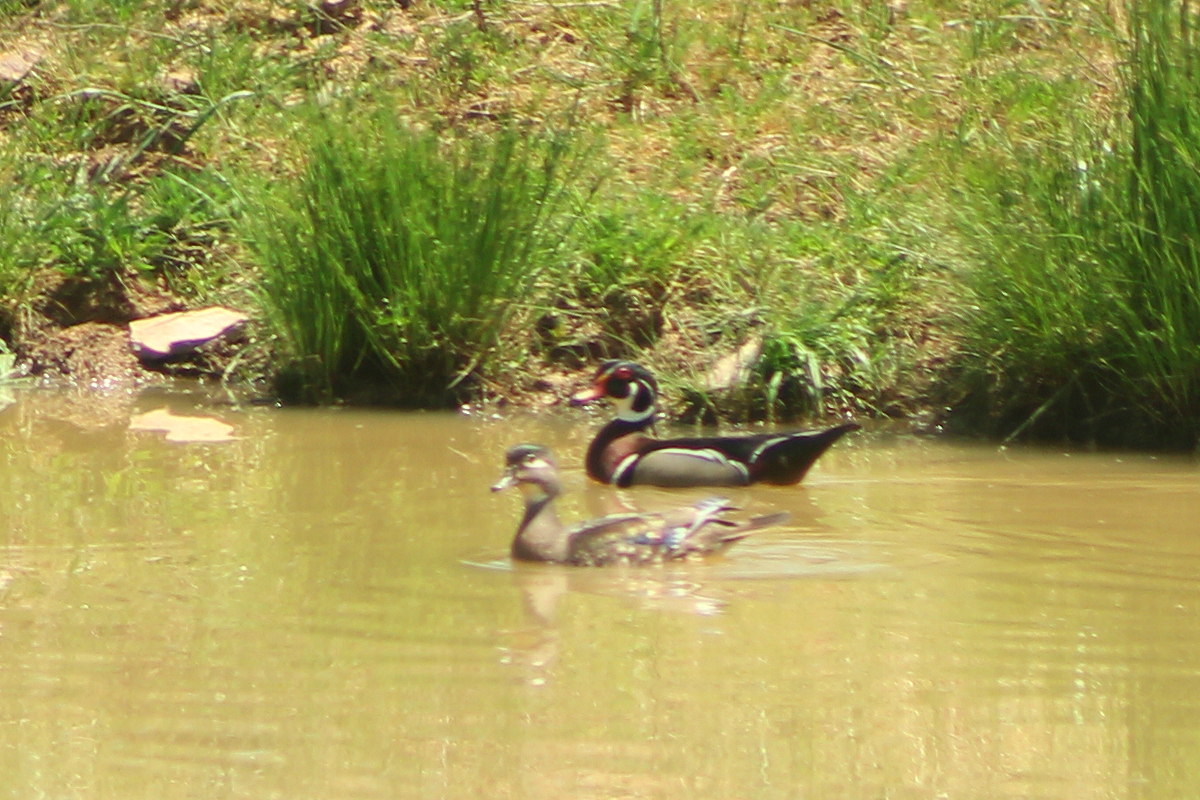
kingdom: Animalia
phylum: Chordata
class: Aves
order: Anseriformes
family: Anatidae
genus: Aix
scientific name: Aix sponsa
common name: Wood duck
